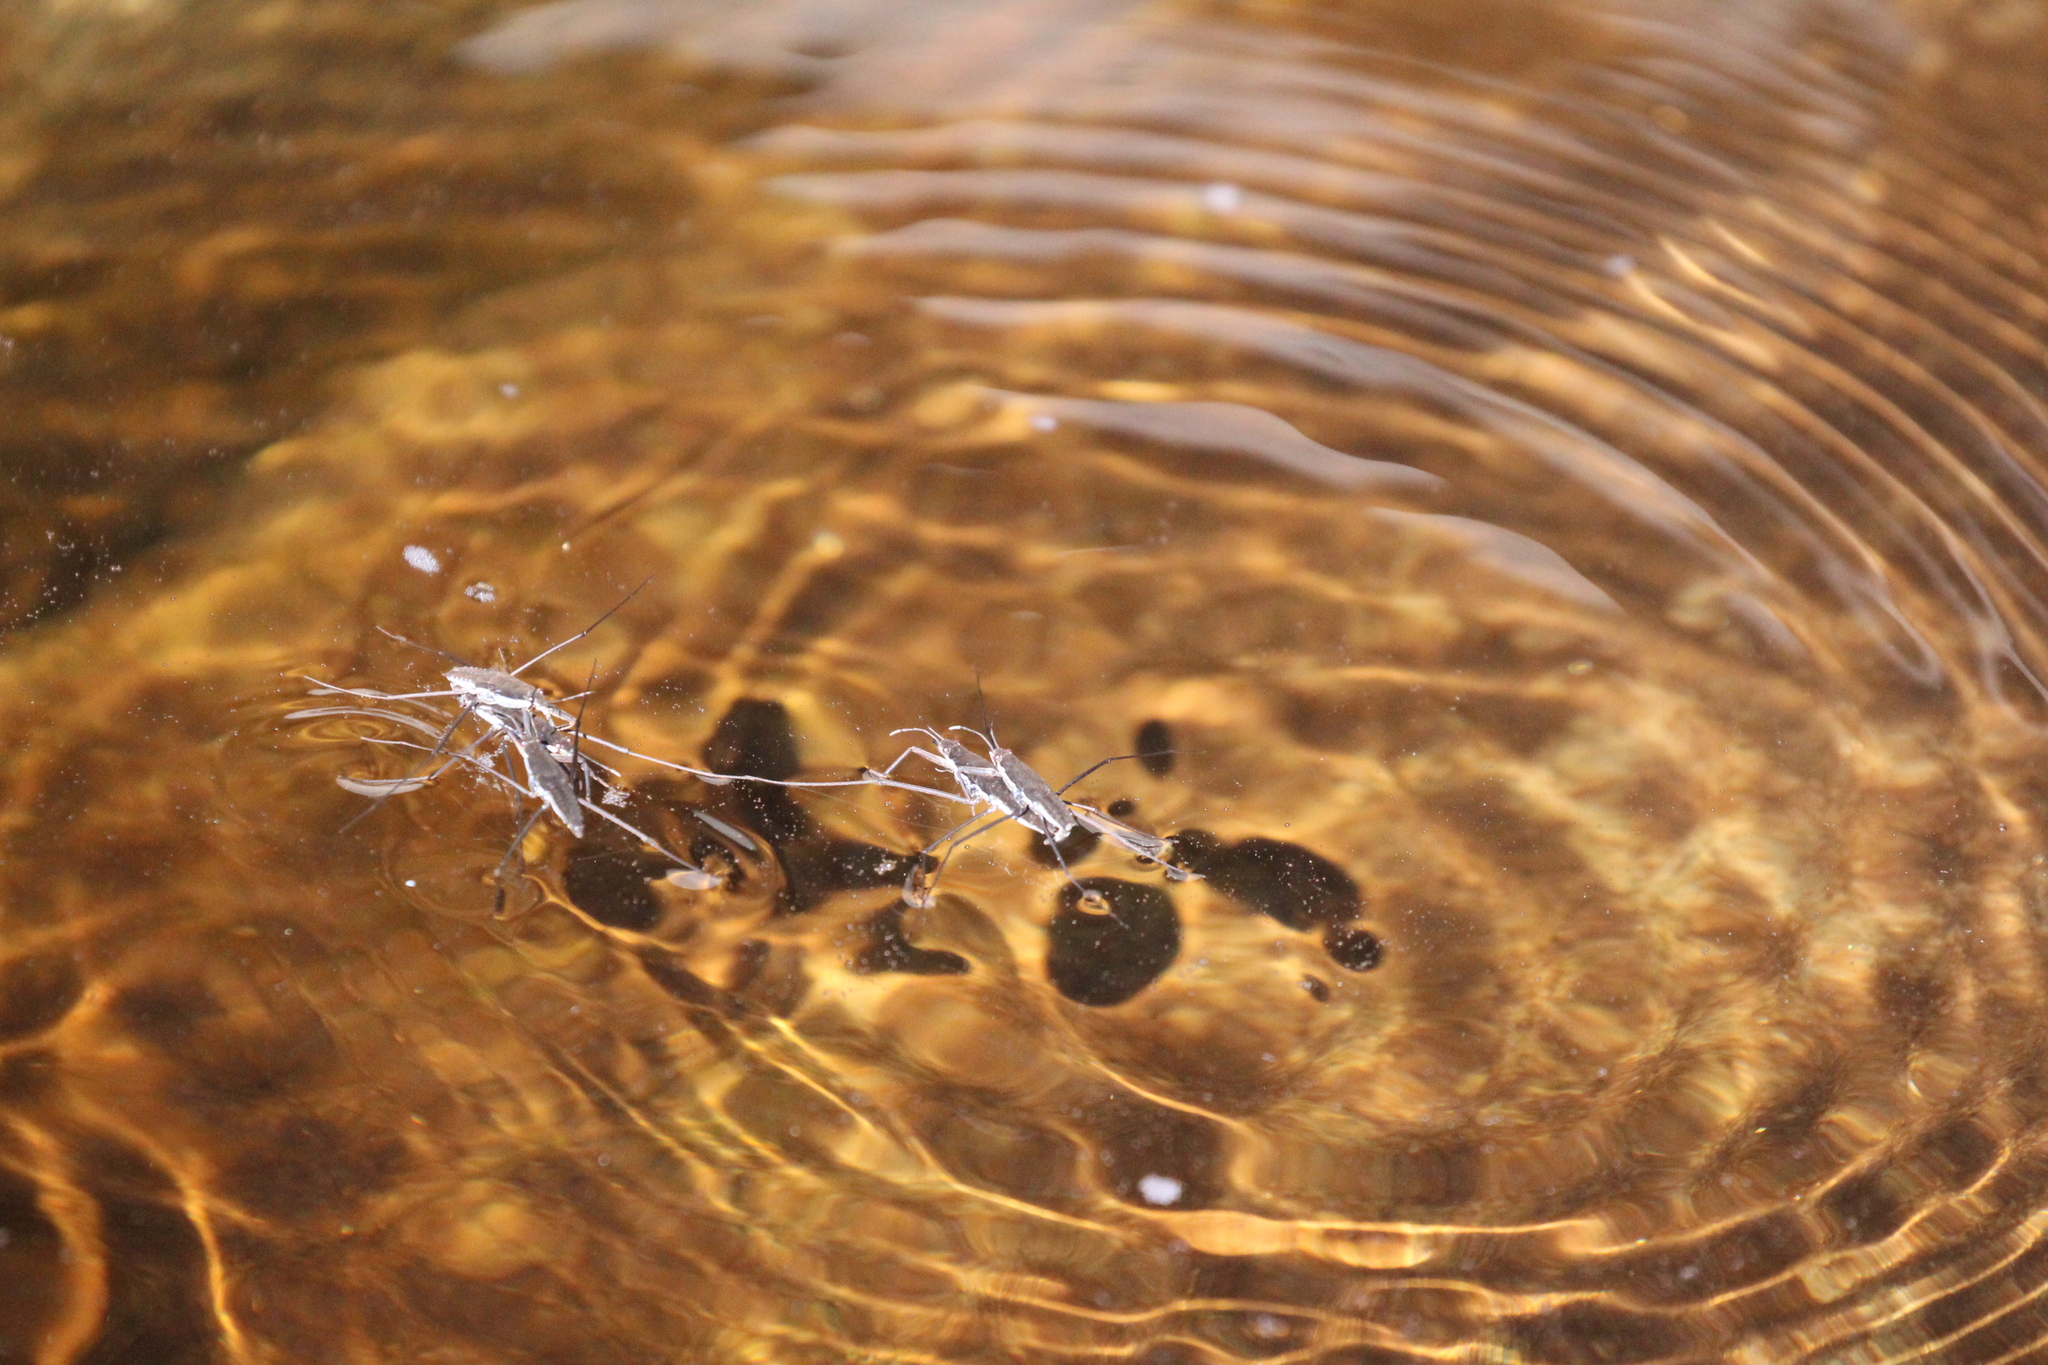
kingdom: Animalia
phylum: Arthropoda
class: Insecta
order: Hemiptera
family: Gerridae
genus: Aquarius
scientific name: Aquarius remigis
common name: Common water strider
